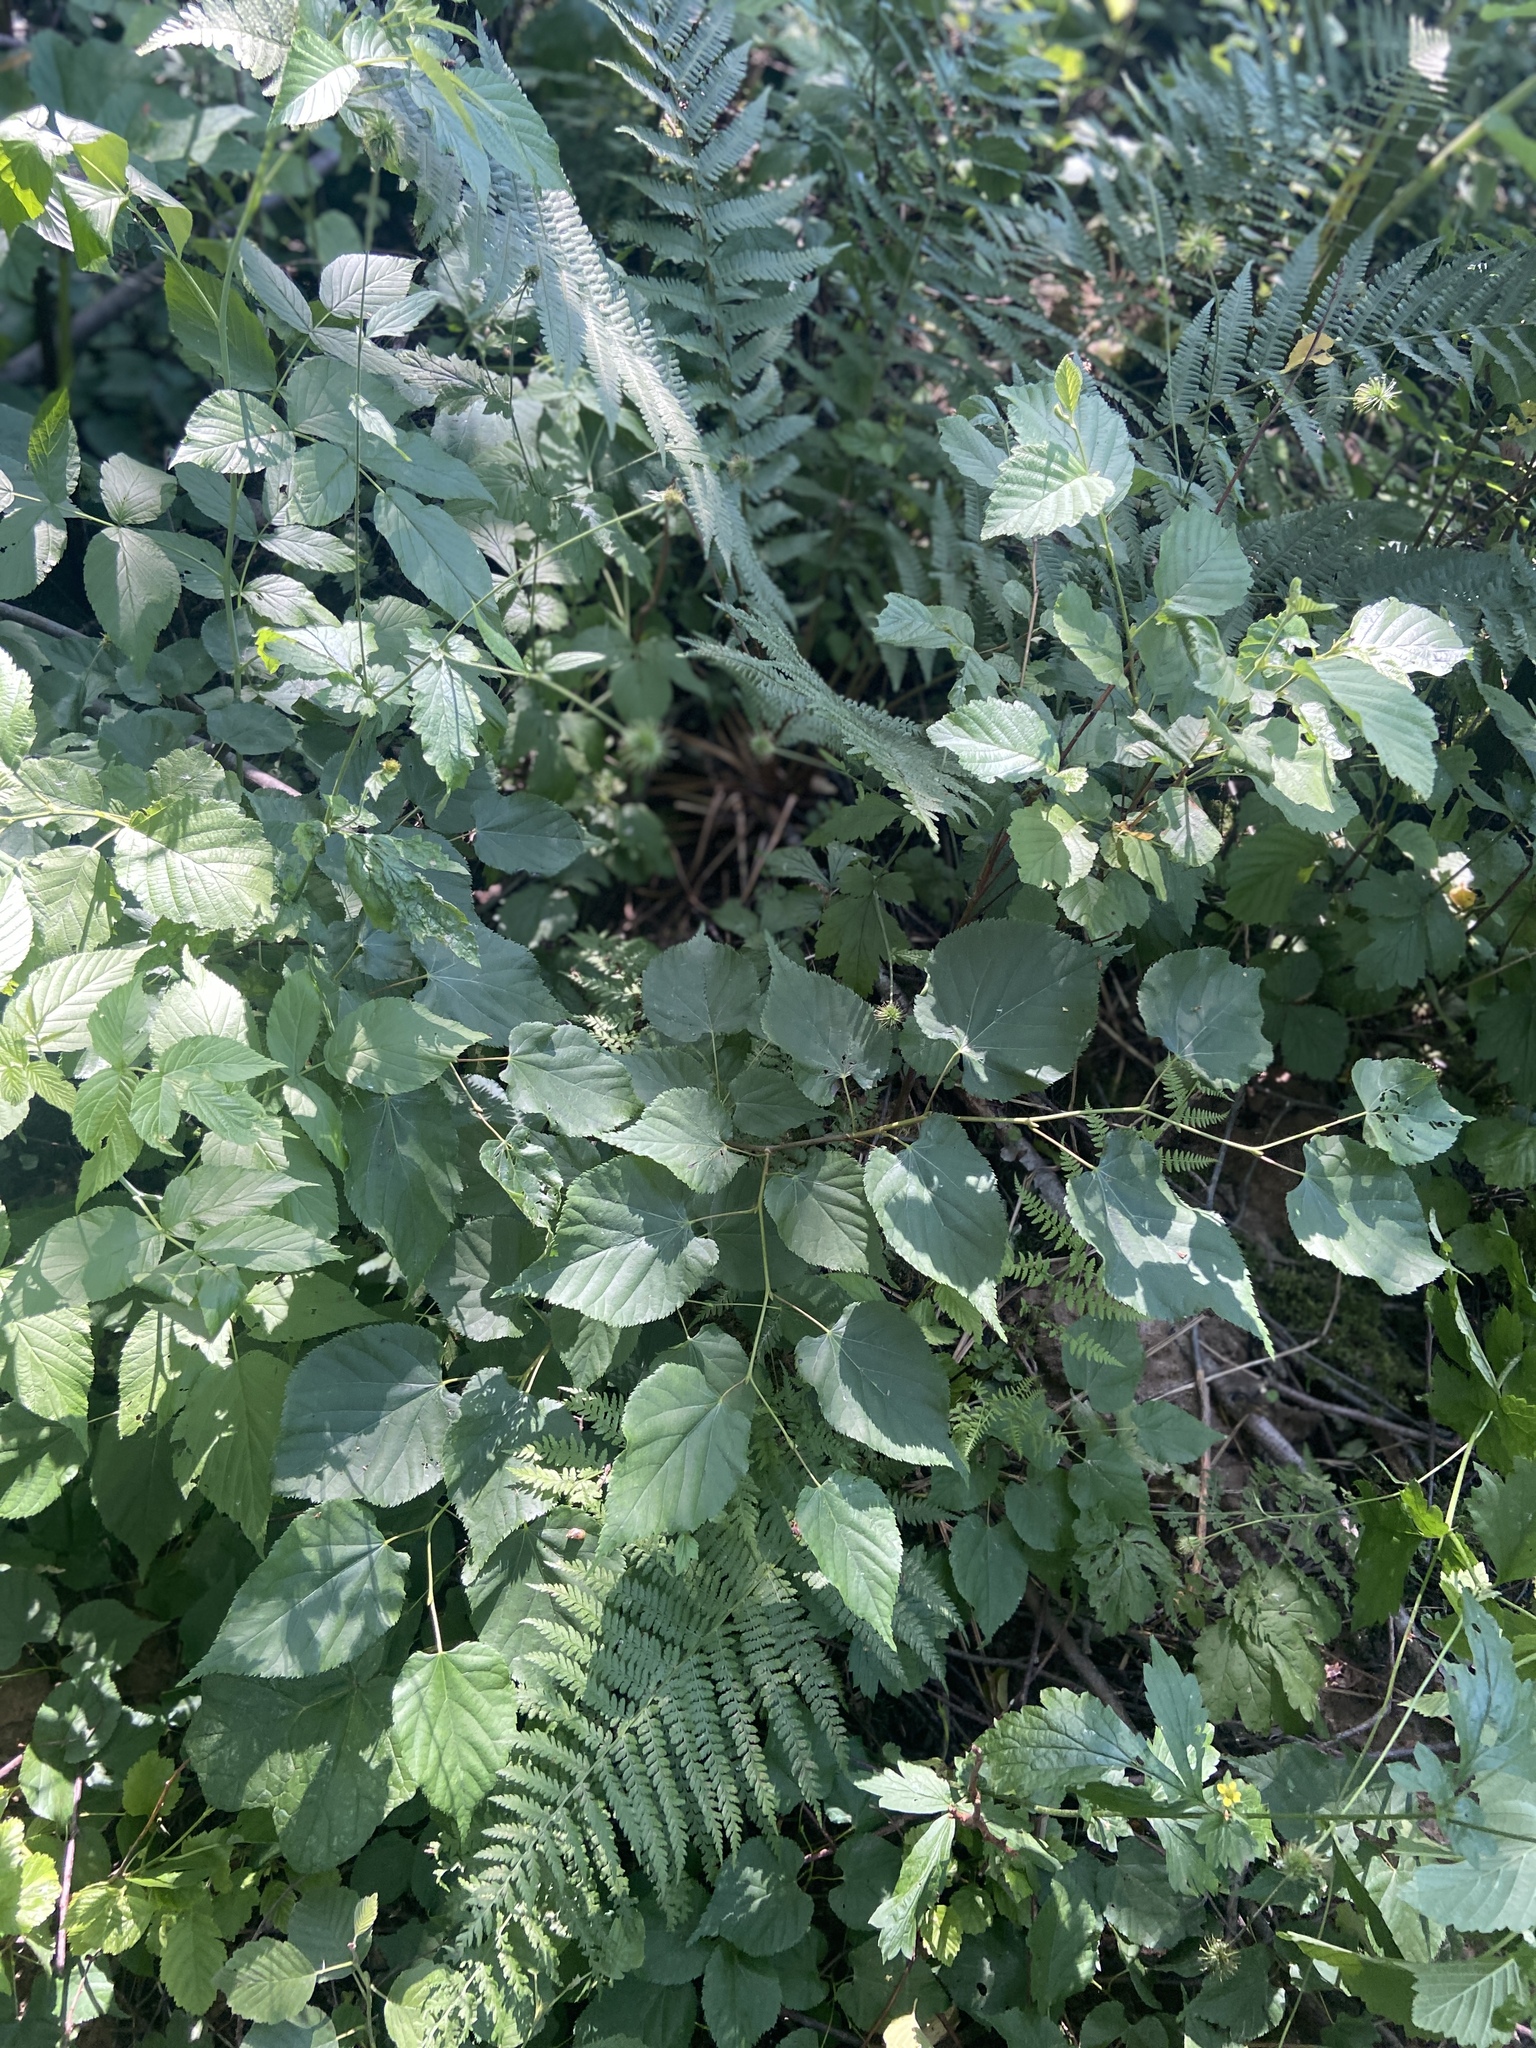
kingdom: Plantae
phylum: Tracheophyta
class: Magnoliopsida
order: Malvales
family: Malvaceae
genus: Tilia
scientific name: Tilia cordata
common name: Small-leaved lime
